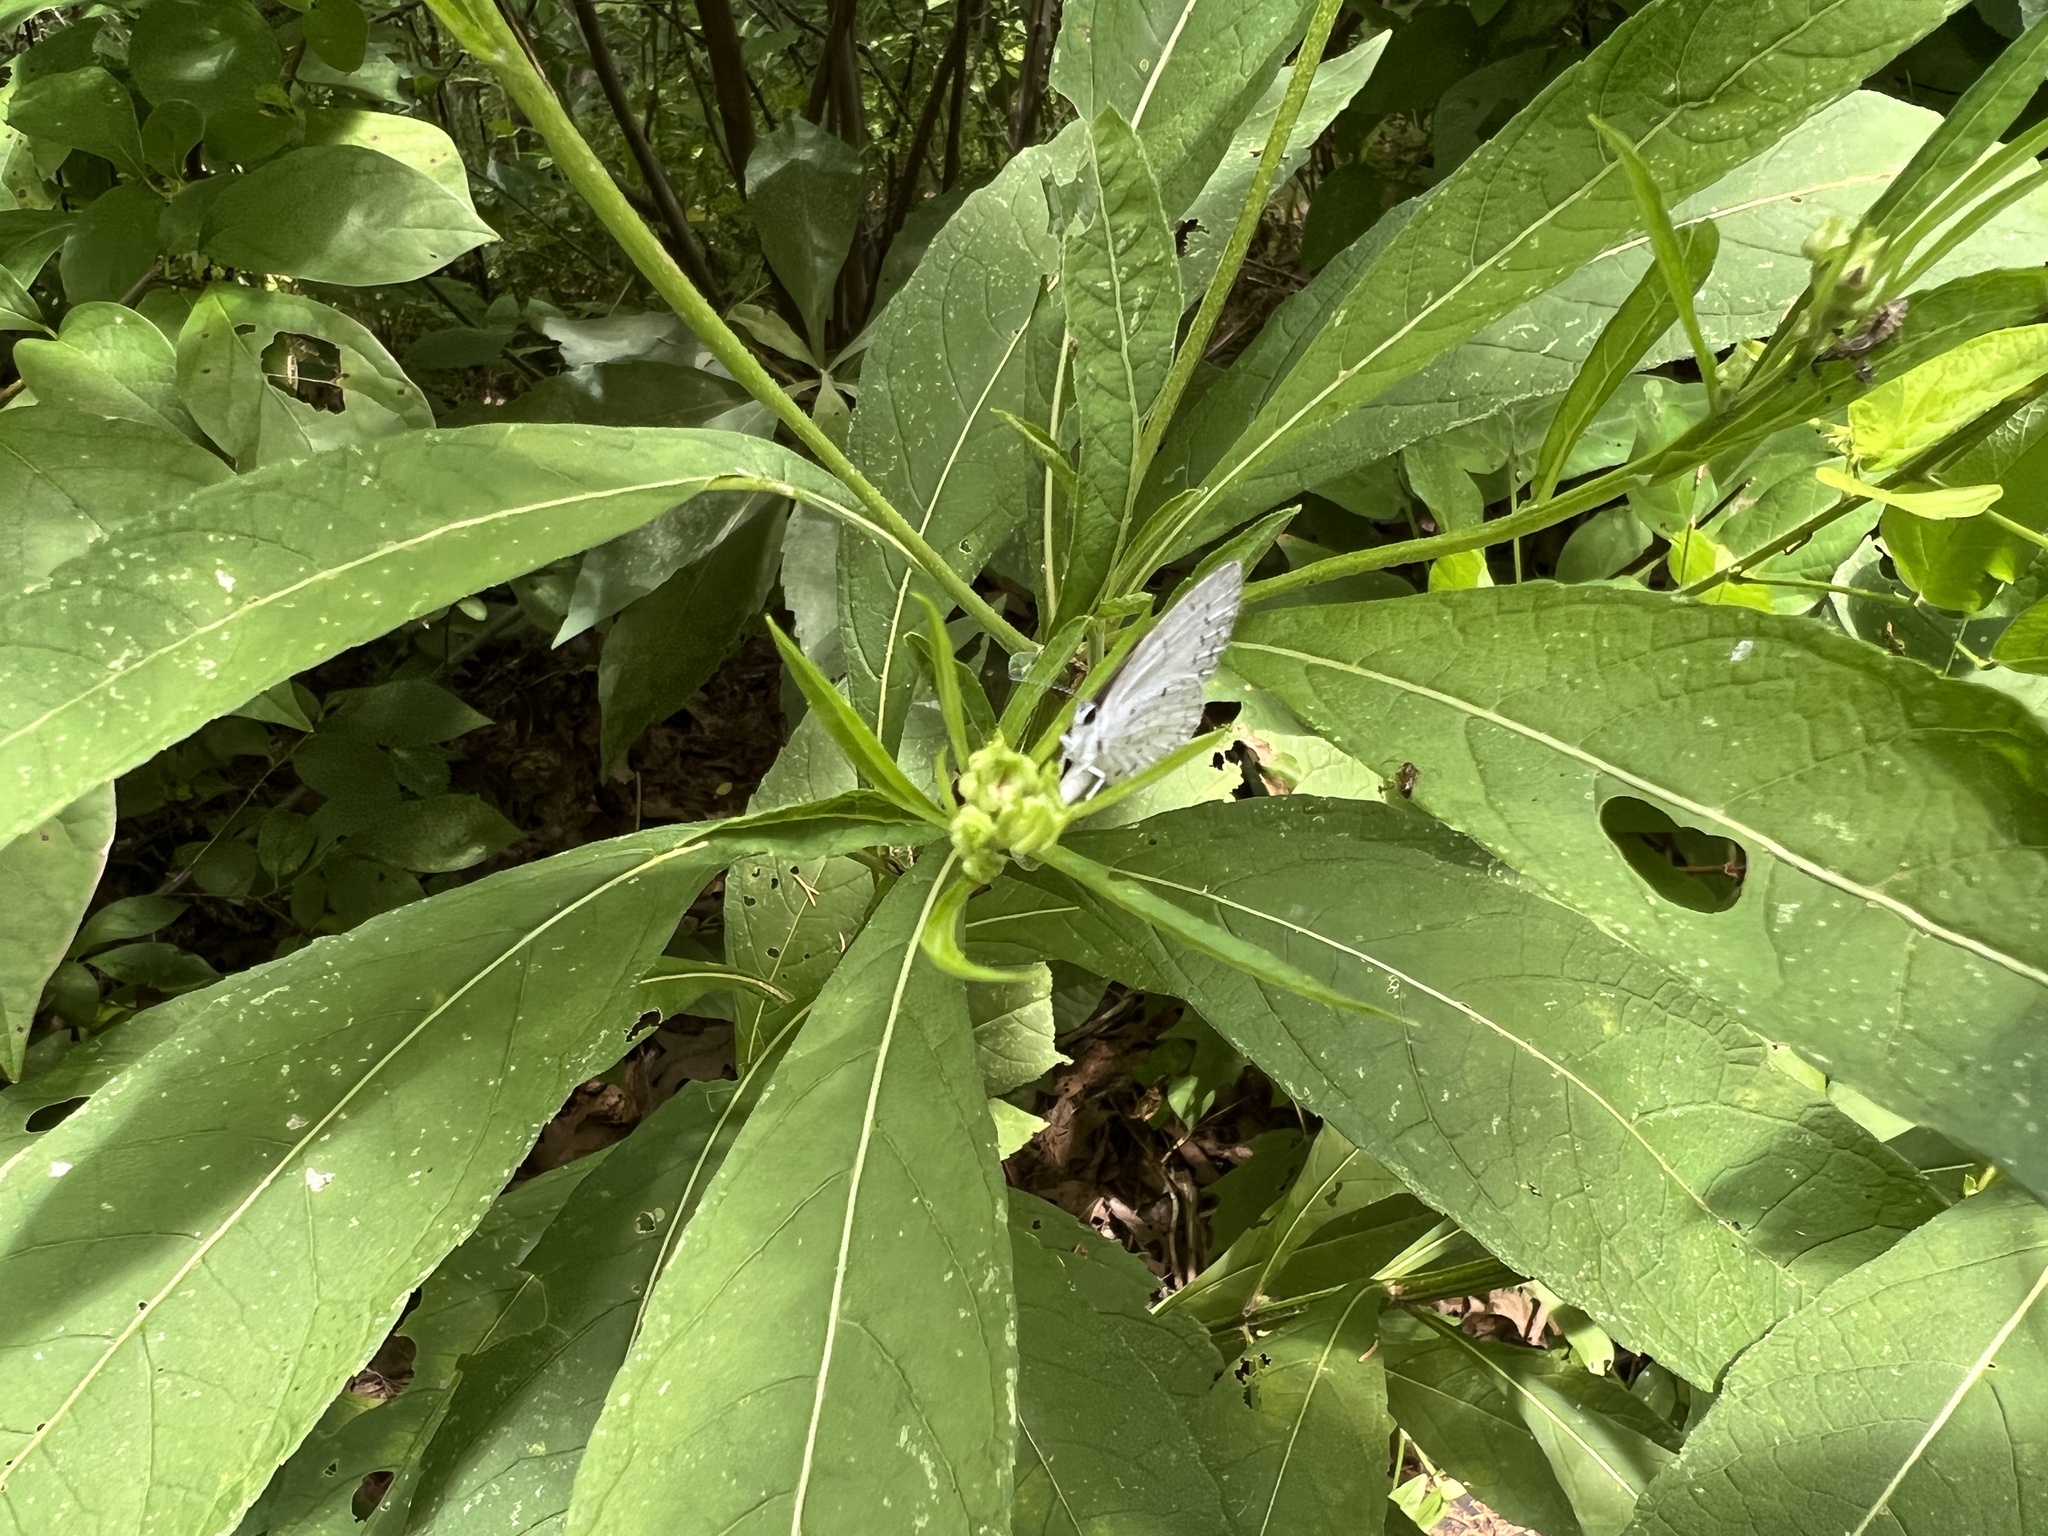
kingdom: Animalia
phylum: Arthropoda
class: Insecta
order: Lepidoptera
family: Lycaenidae
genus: Cyaniris
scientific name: Cyaniris neglecta
